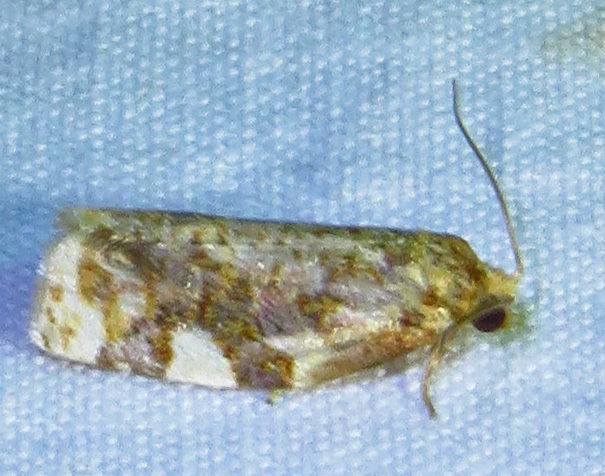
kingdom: Animalia
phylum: Arthropoda
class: Insecta
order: Lepidoptera
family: Tortricidae
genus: Archips
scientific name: Archips argyrospila
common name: Fruit-tree leafroller moth
